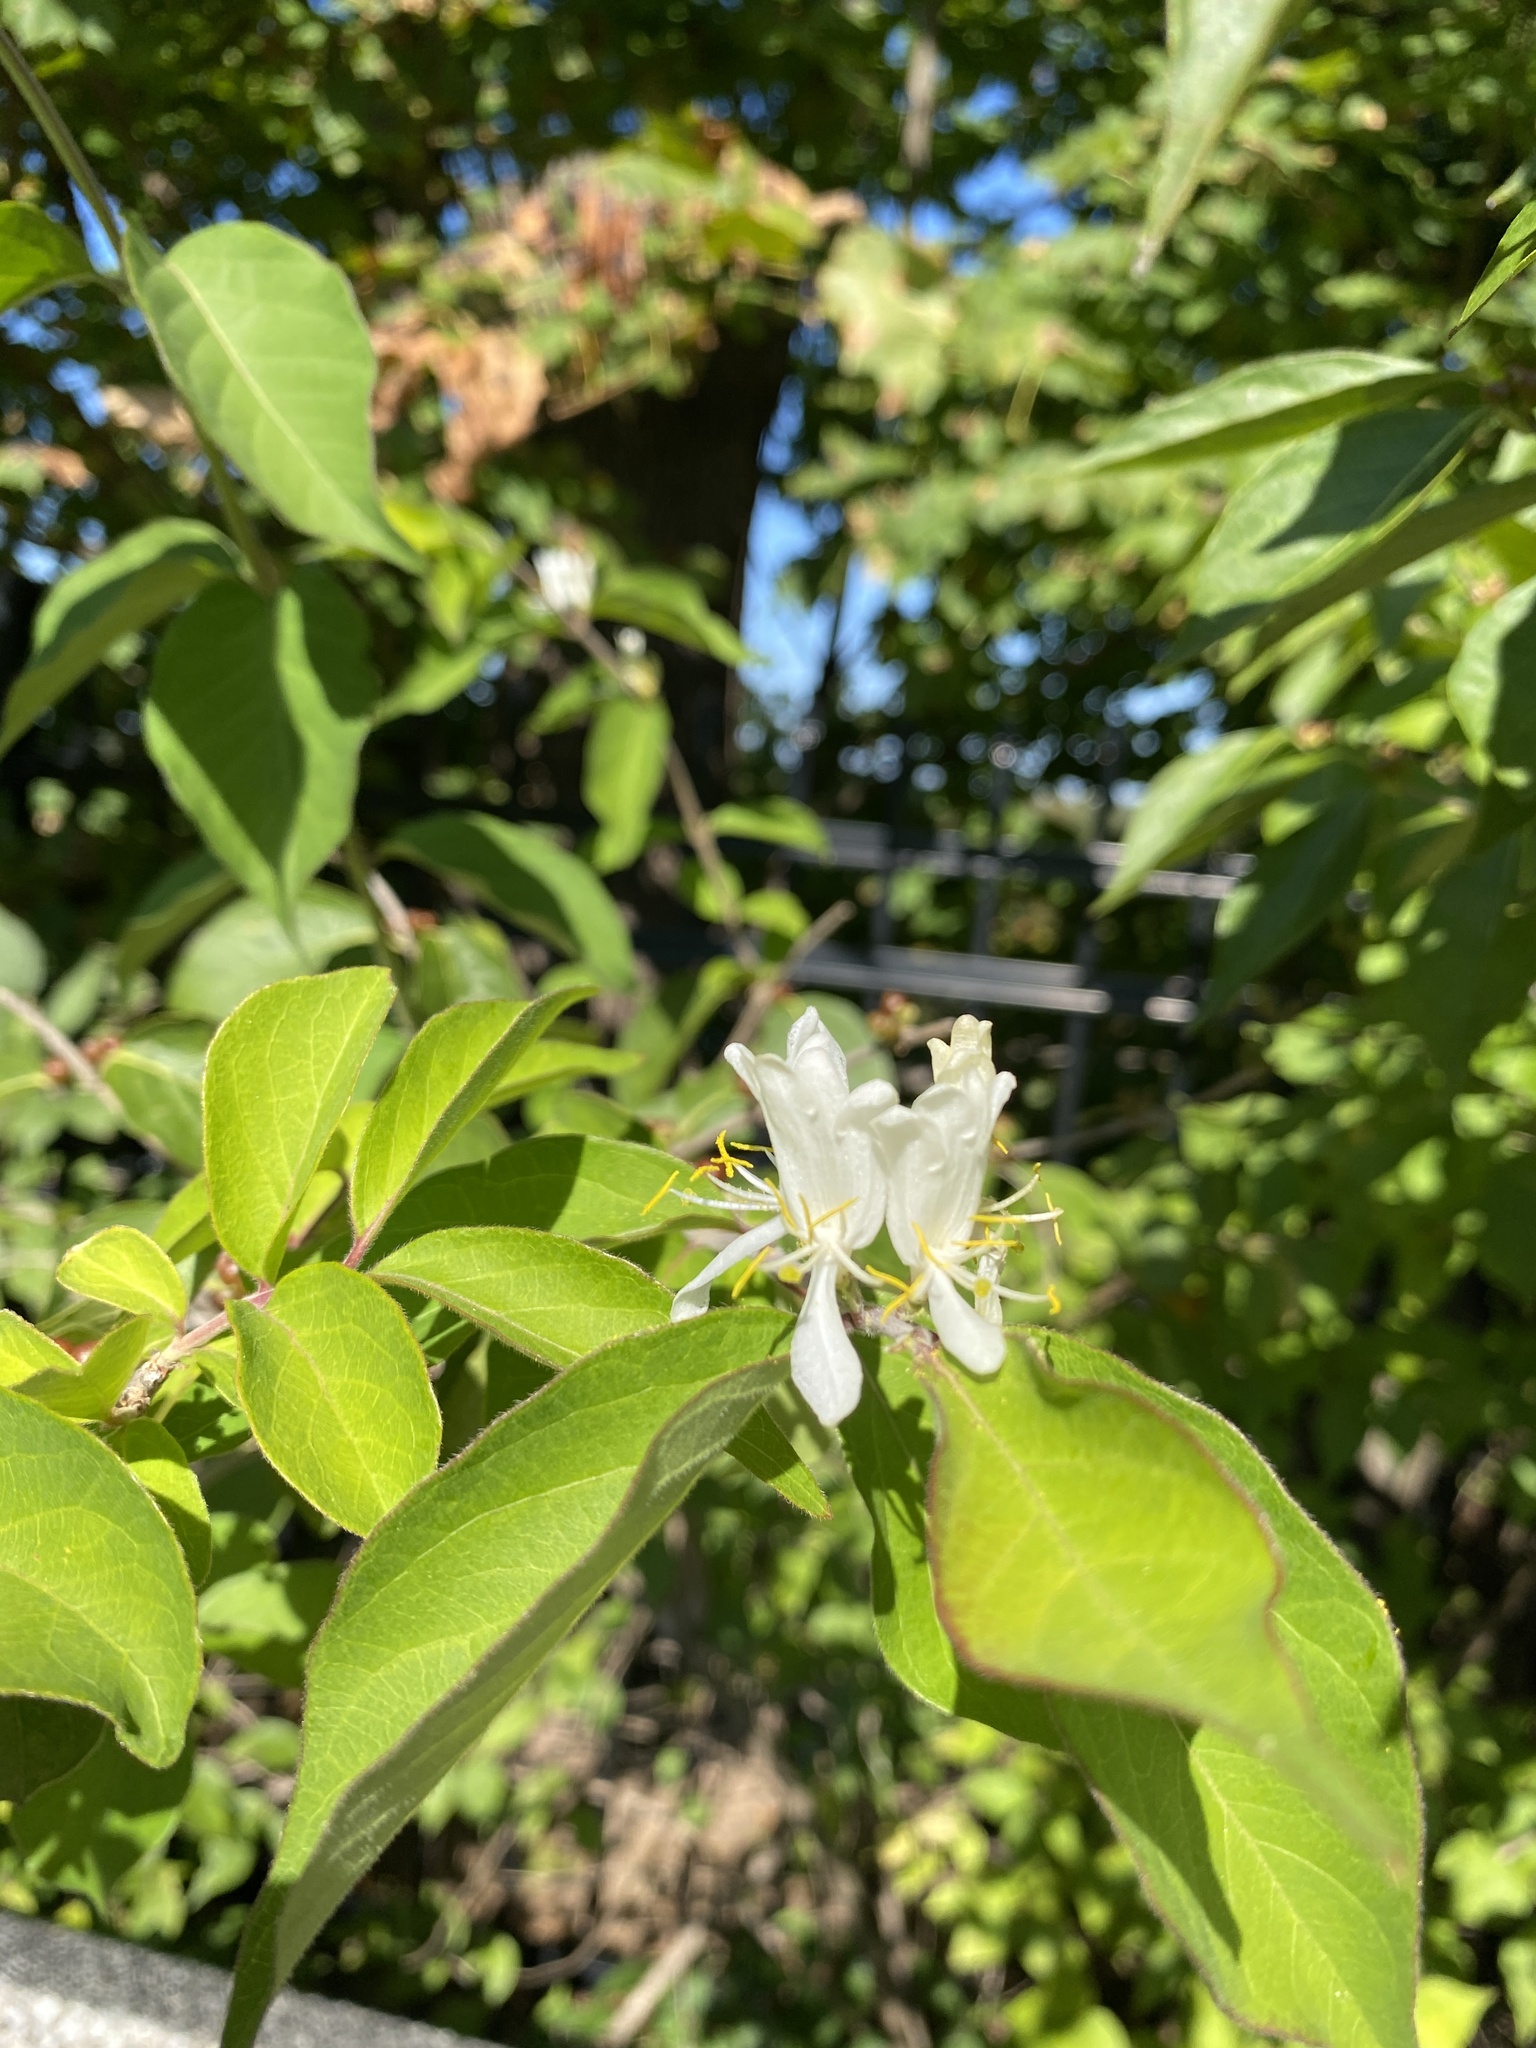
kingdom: Plantae
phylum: Tracheophyta
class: Magnoliopsida
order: Dipsacales
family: Caprifoliaceae
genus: Lonicera
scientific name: Lonicera maackii
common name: Amur honeysuckle
